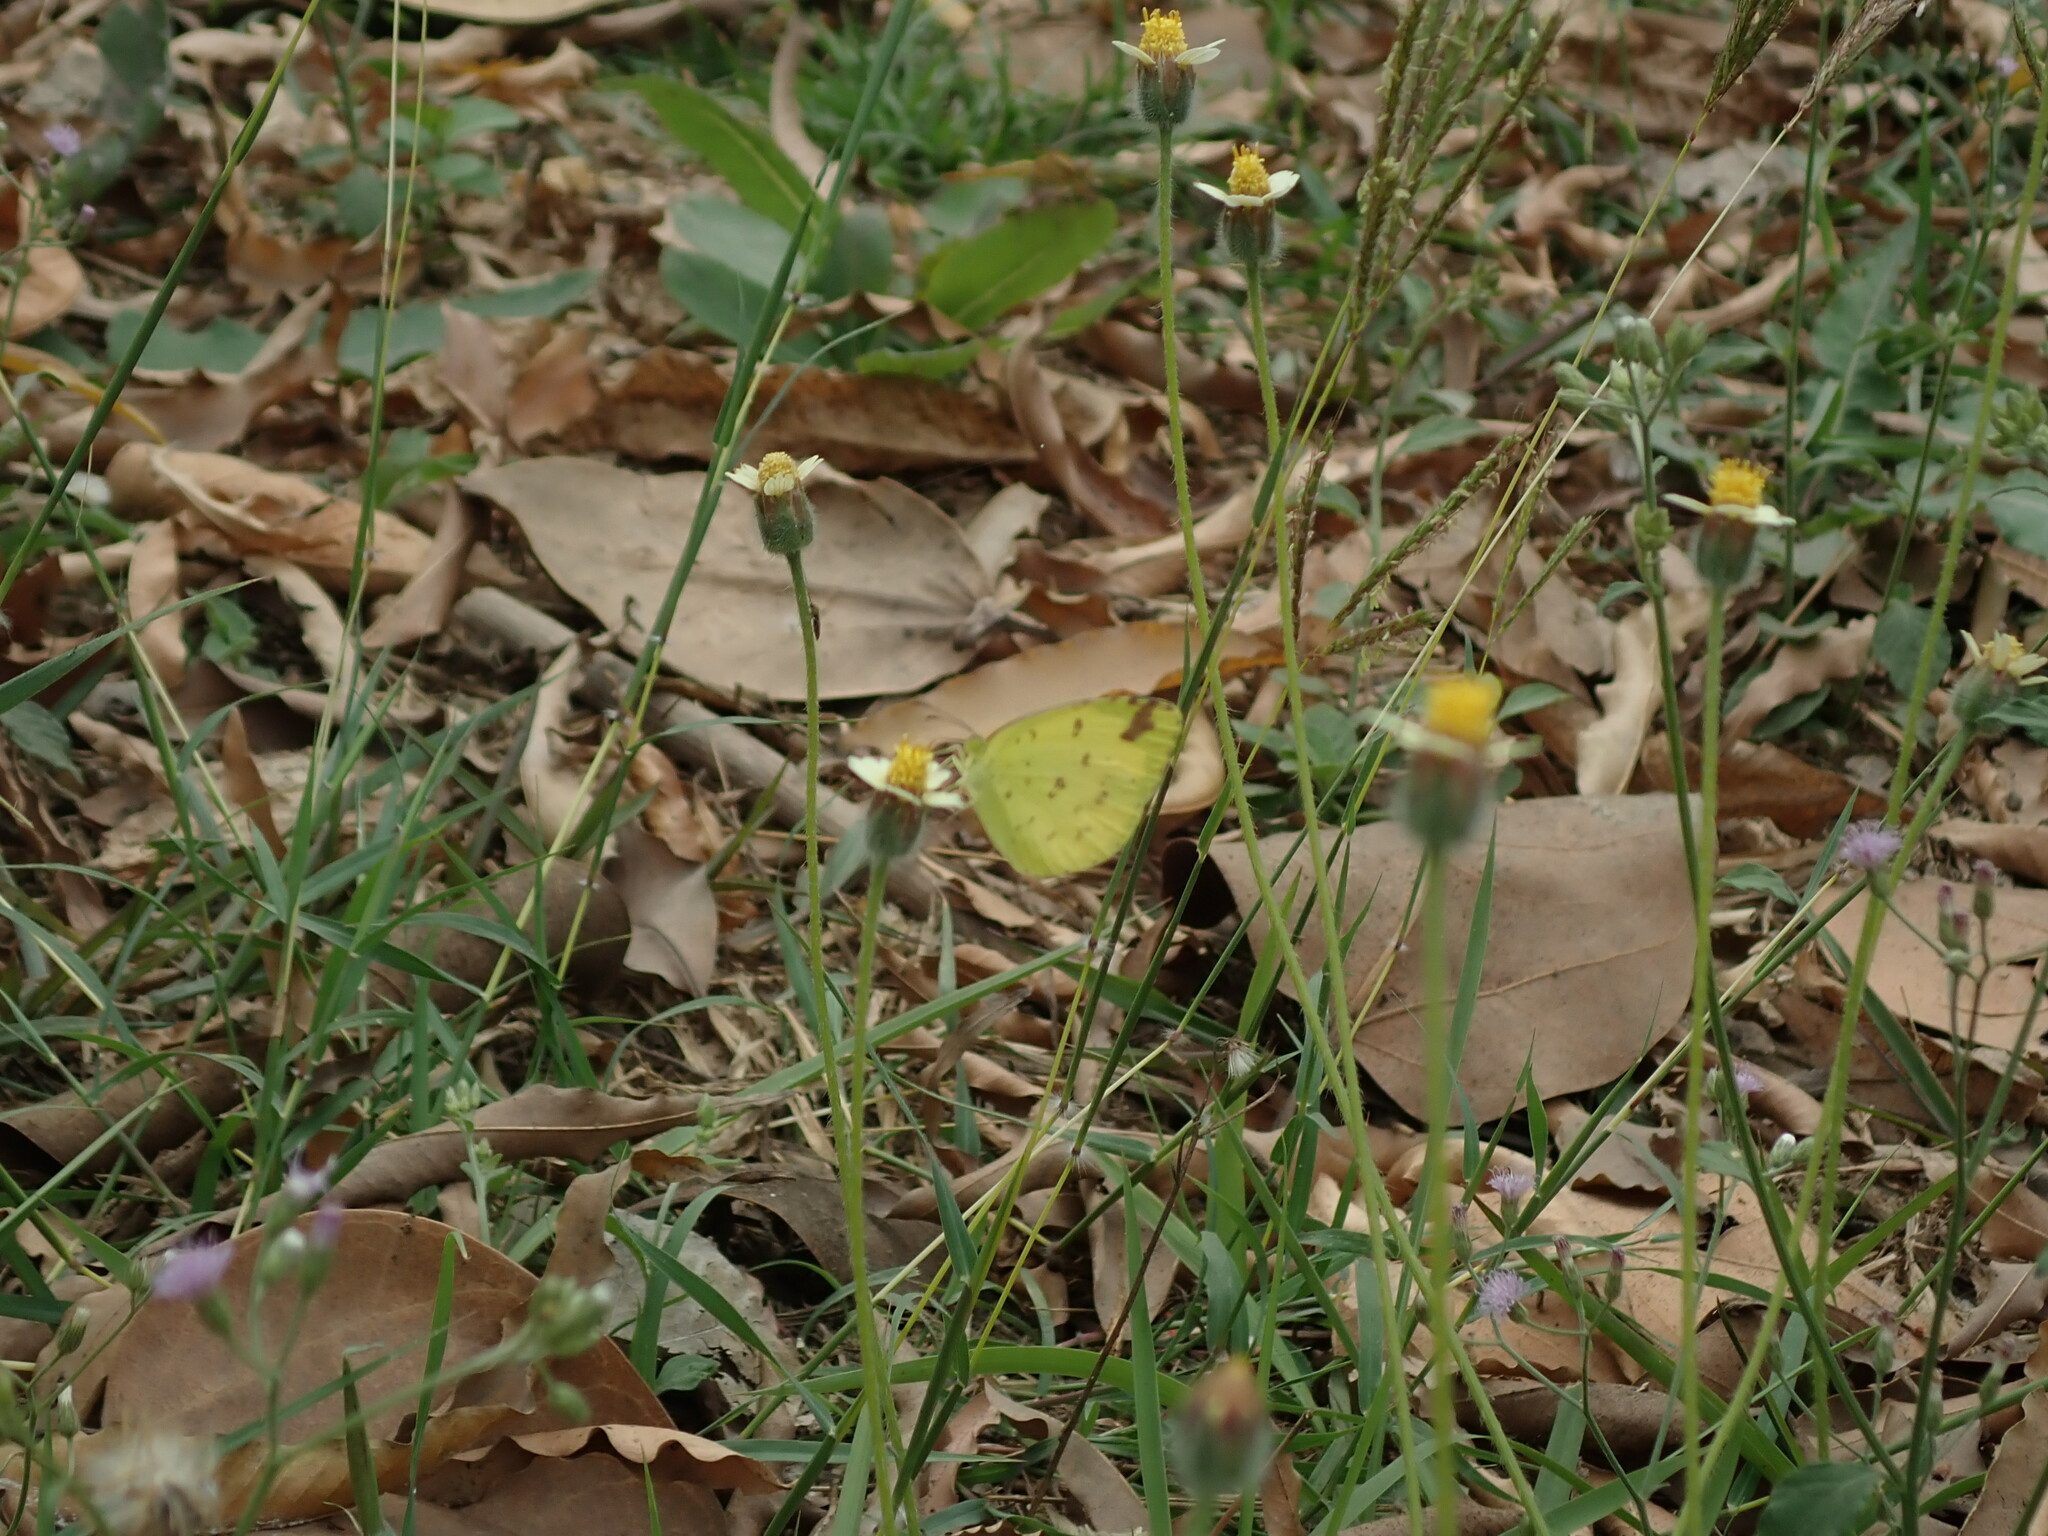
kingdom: Animalia
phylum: Arthropoda
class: Insecta
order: Lepidoptera
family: Pieridae
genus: Eurema
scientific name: Eurema hecabe
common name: Pale grass yellow
